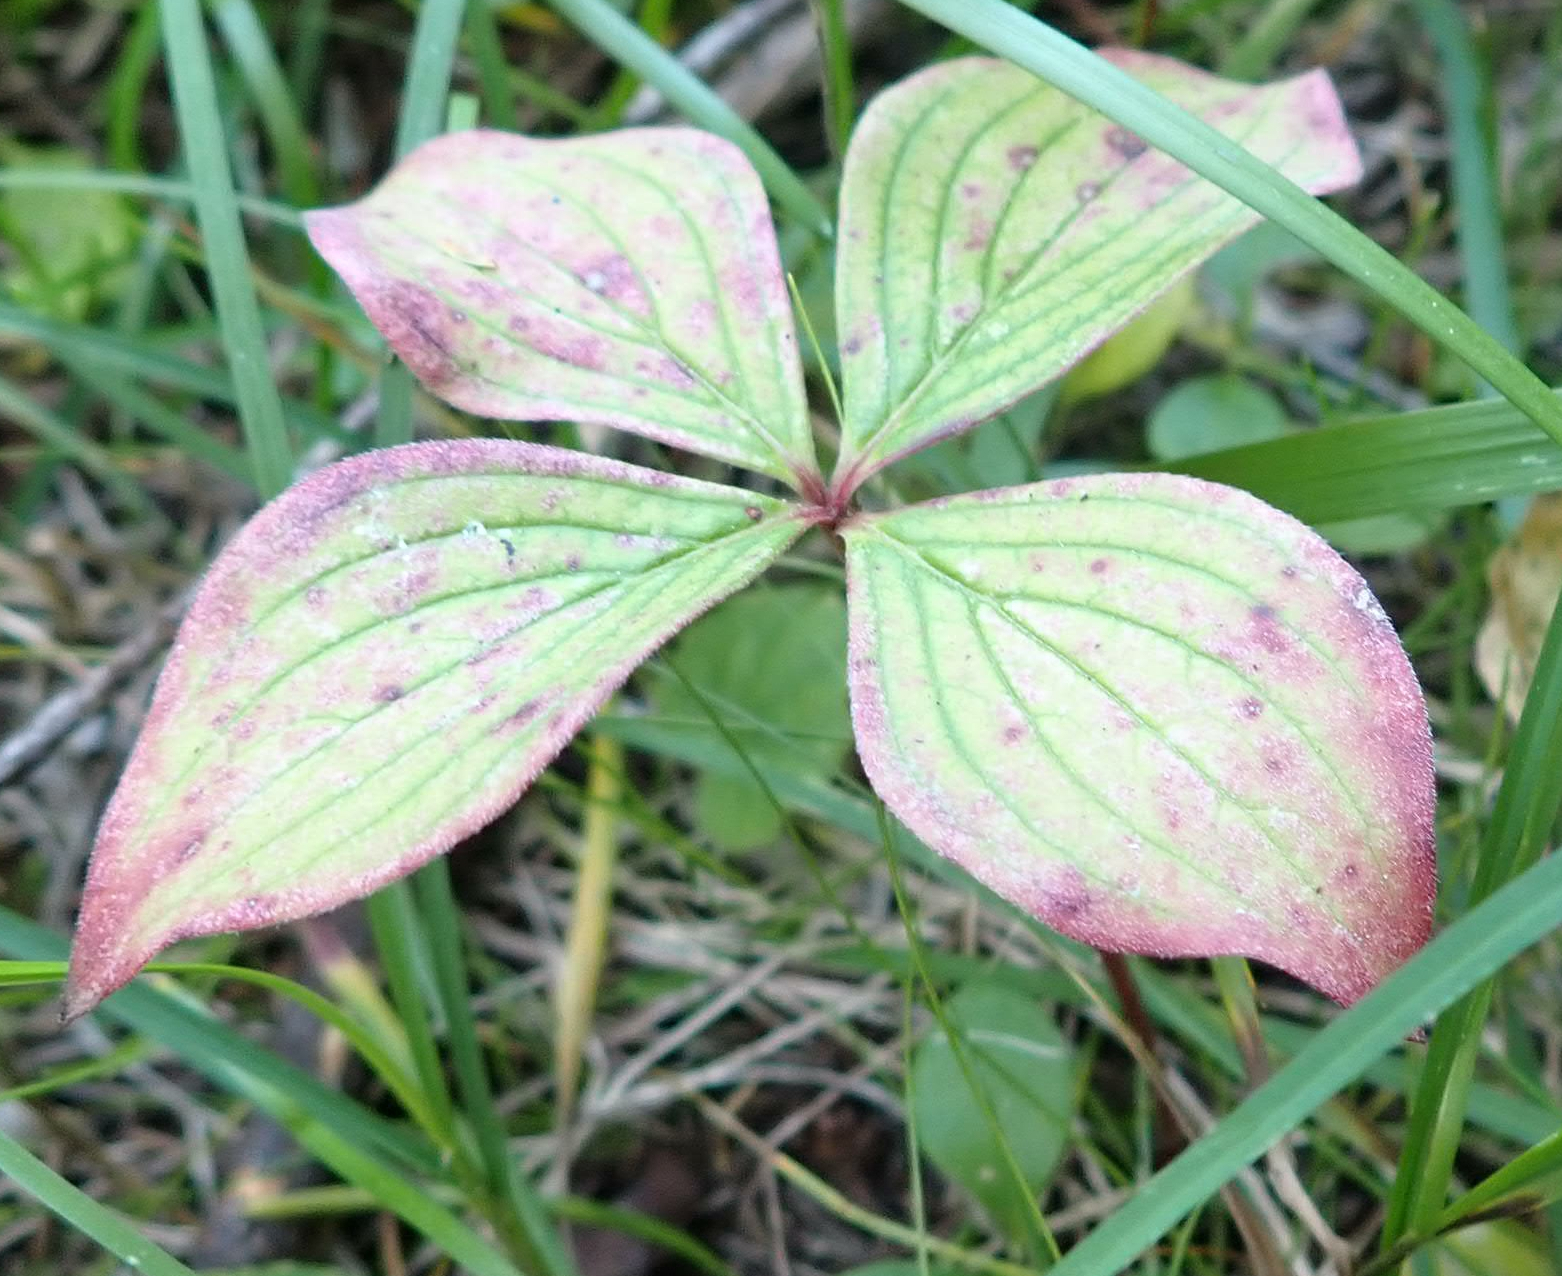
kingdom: Plantae
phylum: Tracheophyta
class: Magnoliopsida
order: Cornales
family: Cornaceae
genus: Cornus
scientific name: Cornus canadensis
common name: Creeping dogwood
